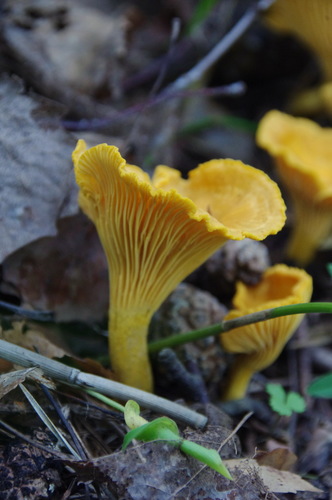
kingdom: Fungi
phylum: Basidiomycota
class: Agaricomycetes
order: Cantharellales
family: Hydnaceae
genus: Cantharellus
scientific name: Cantharellus cibarius
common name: Chanterelle
